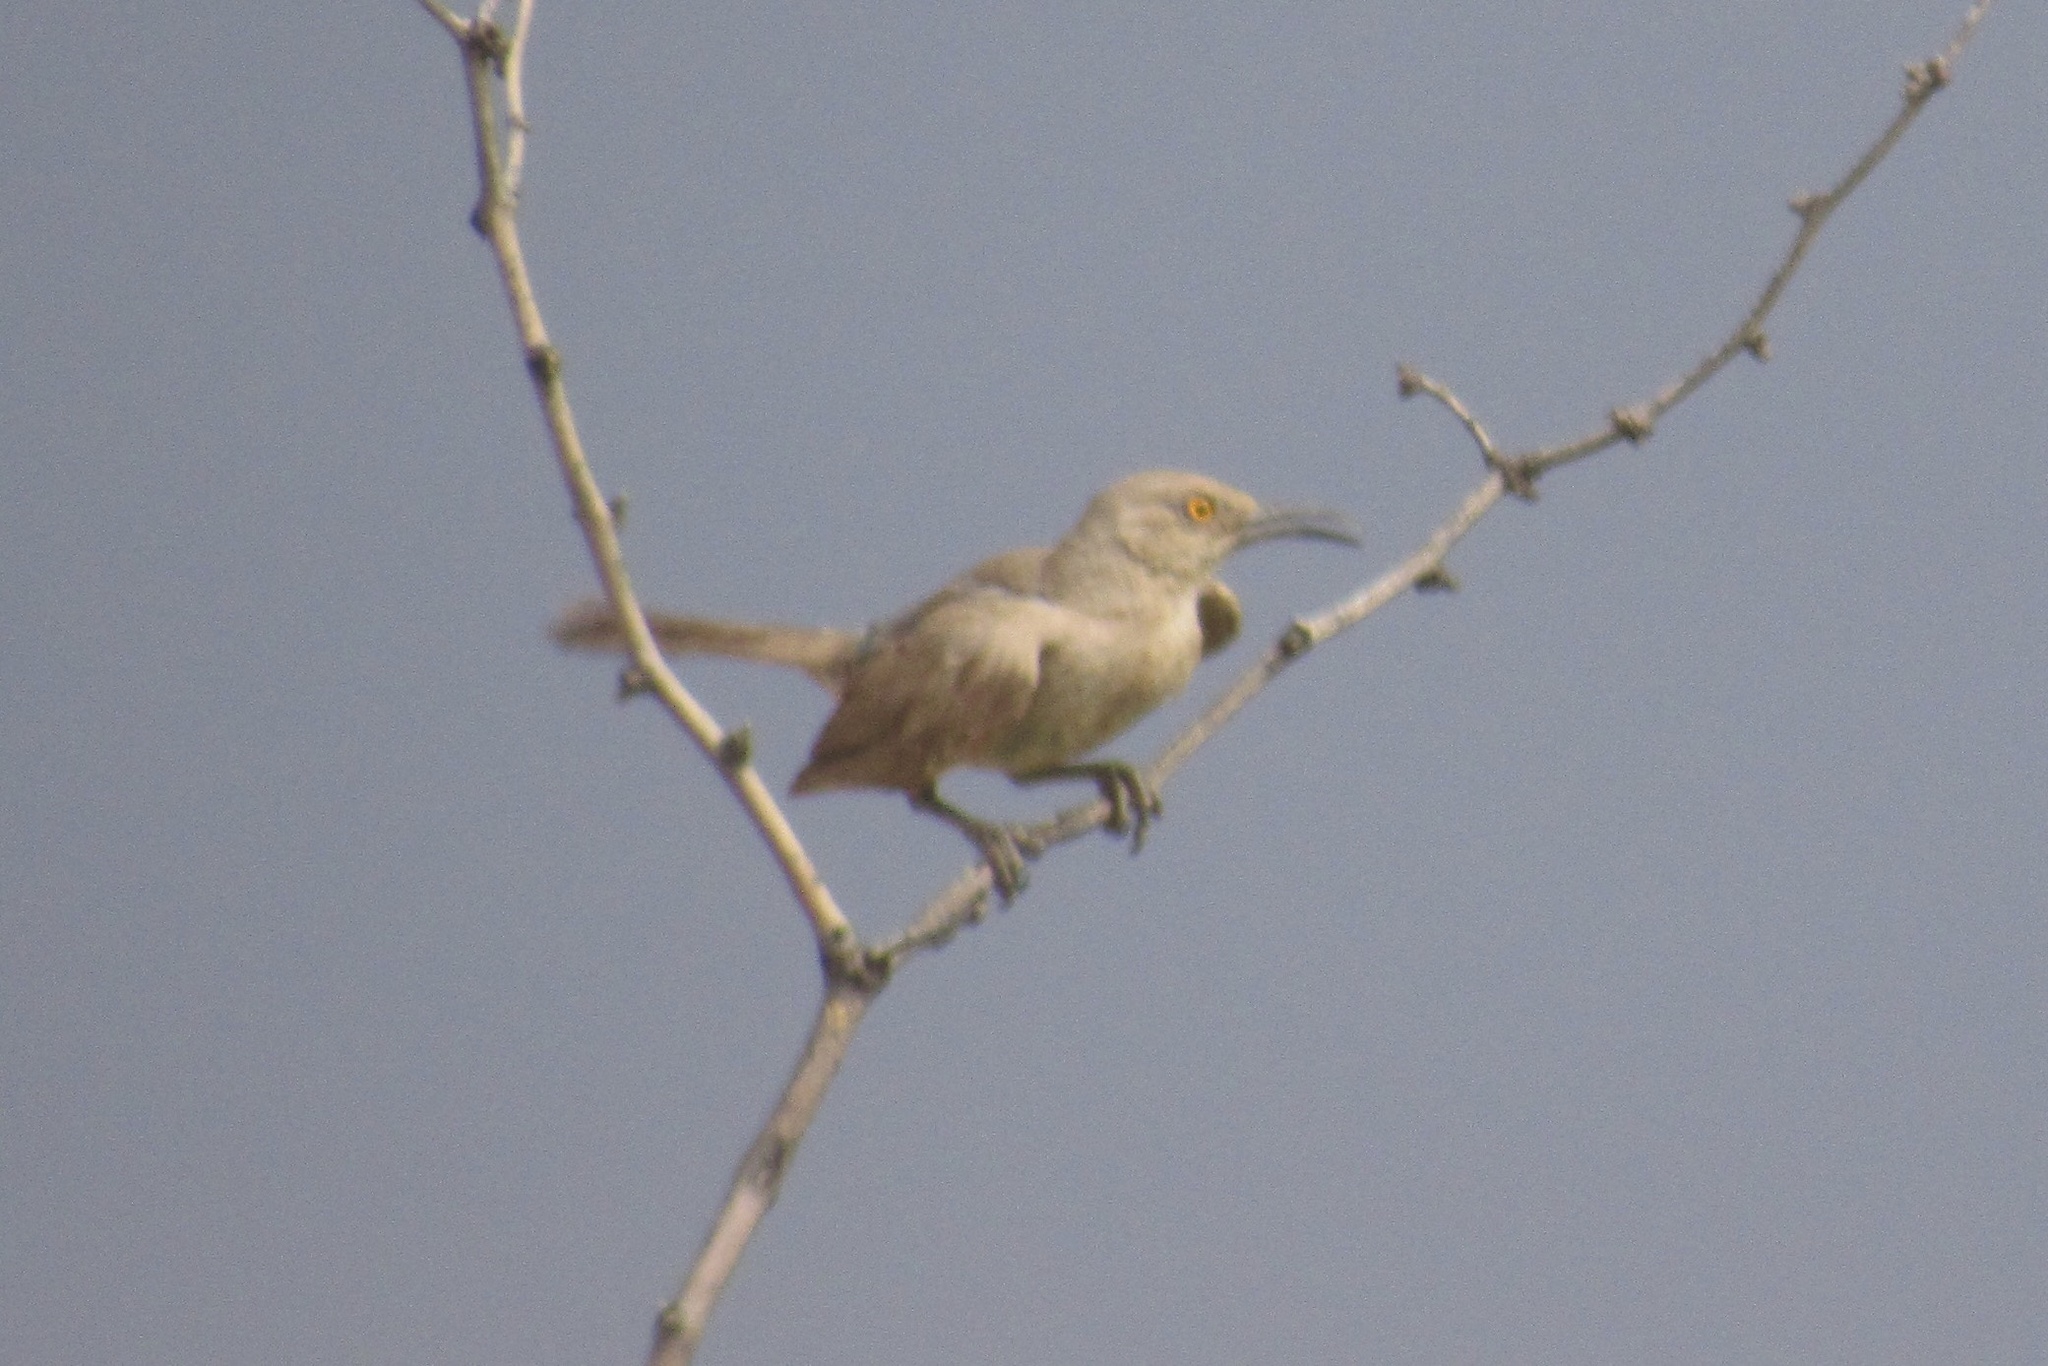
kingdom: Animalia
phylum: Chordata
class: Aves
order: Passeriformes
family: Mimidae
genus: Toxostoma
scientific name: Toxostoma curvirostre
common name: Curve-billed thrasher
